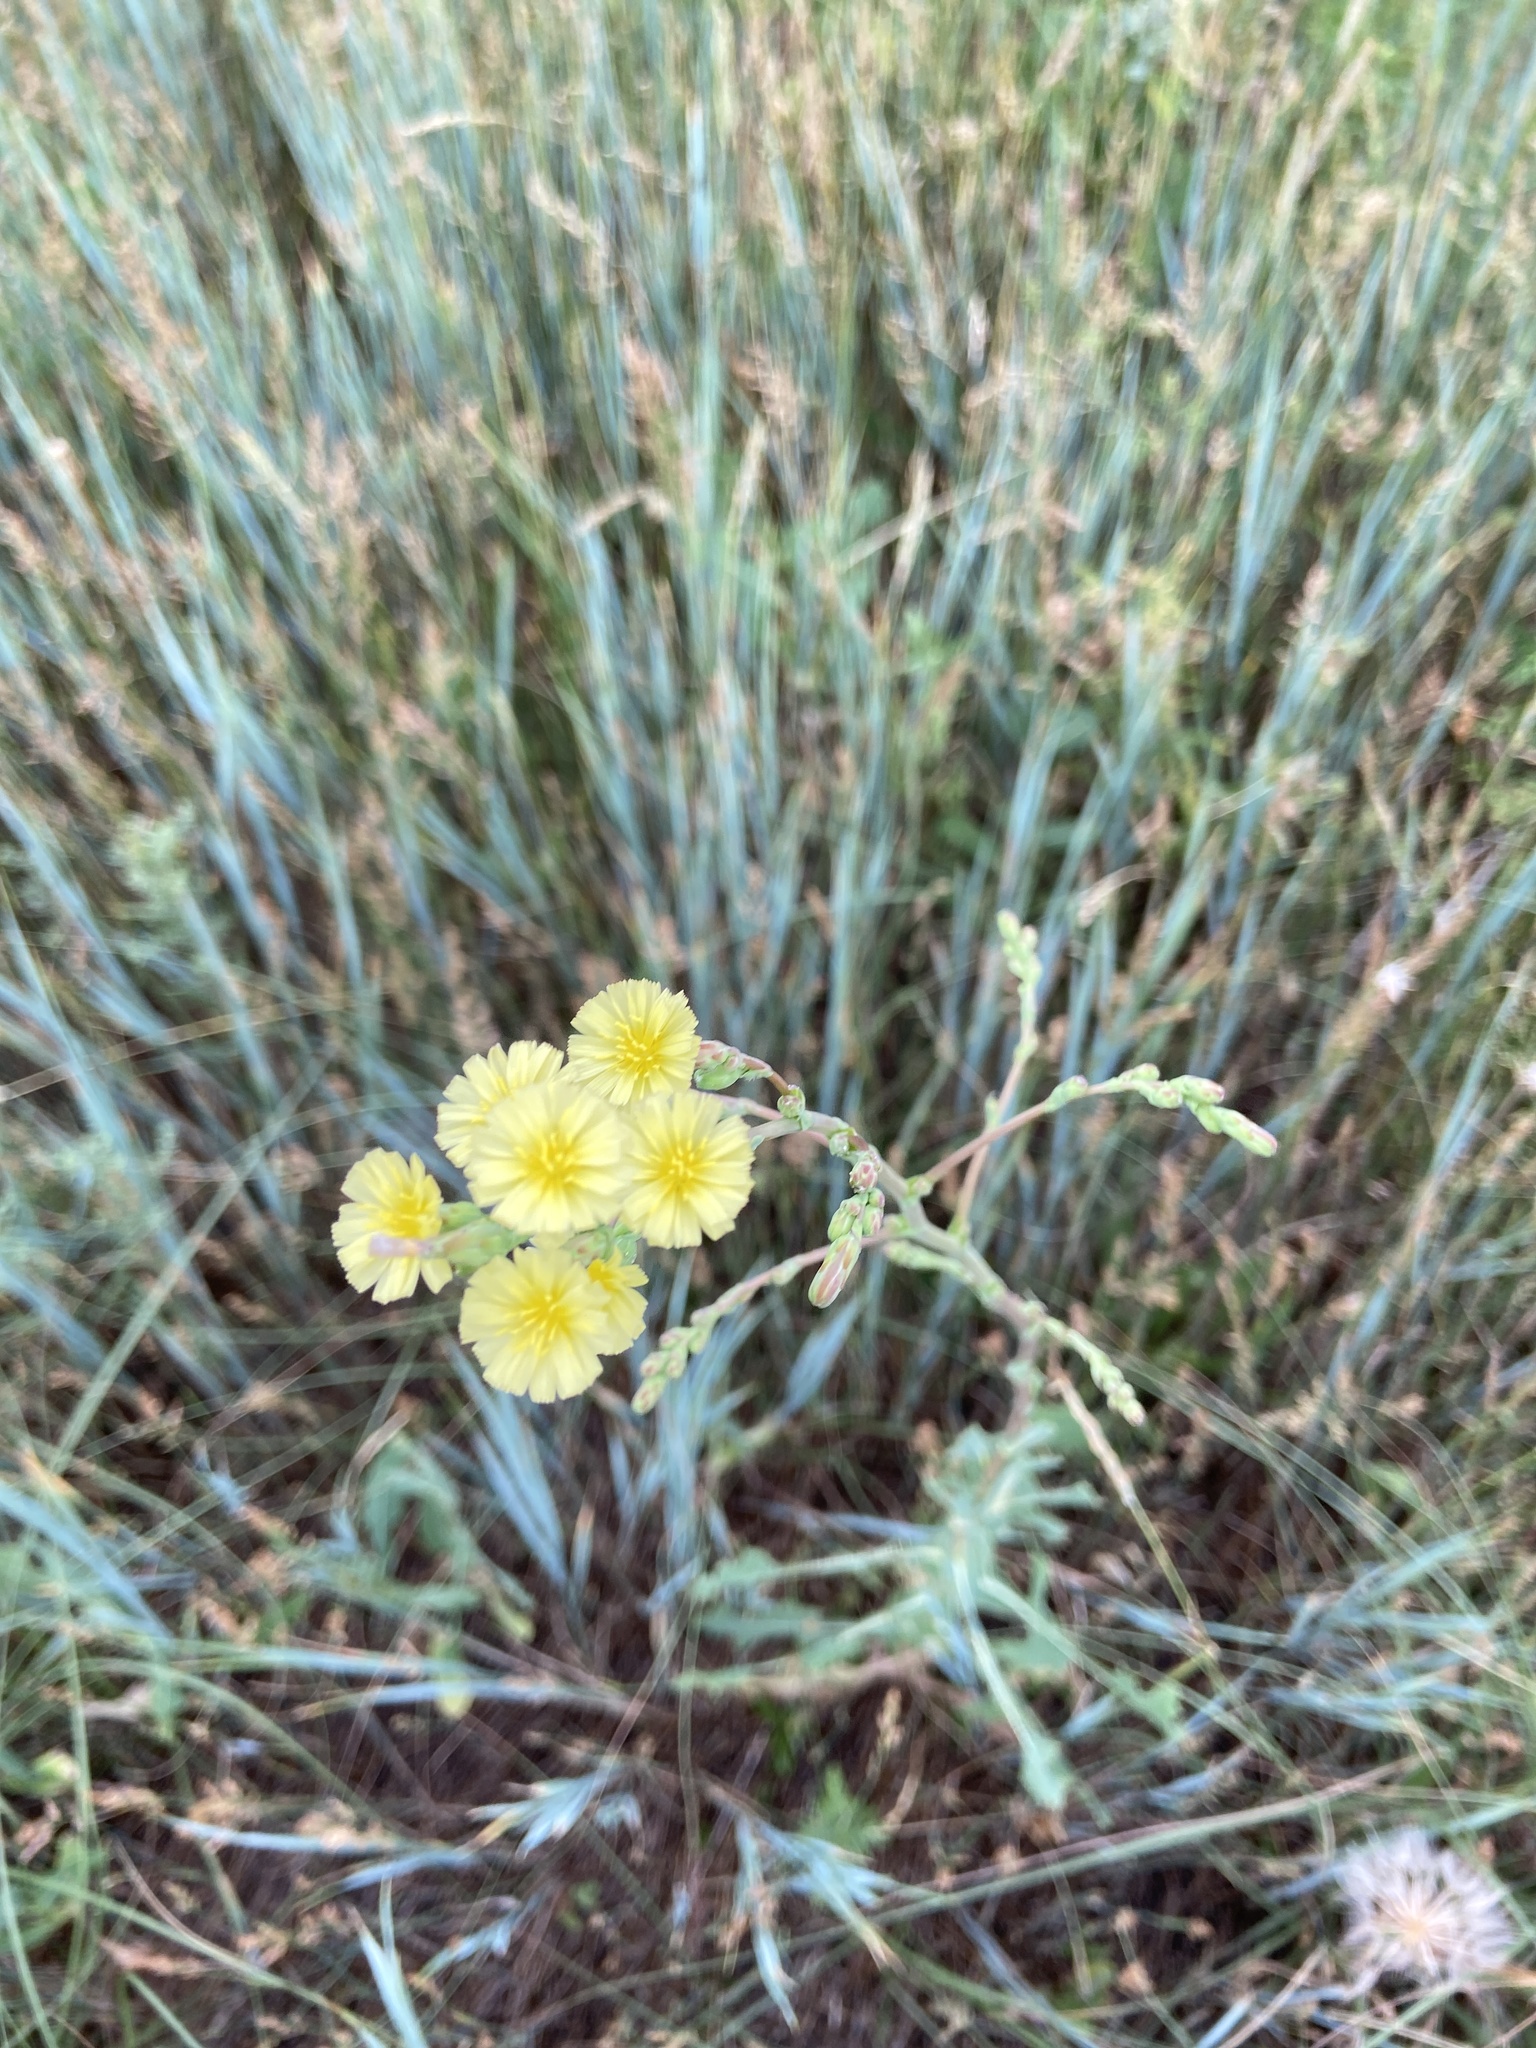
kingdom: Plantae
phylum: Tracheophyta
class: Magnoliopsida
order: Asterales
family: Asteraceae
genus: Lactuca
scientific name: Lactuca serriola
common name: Prickly lettuce
